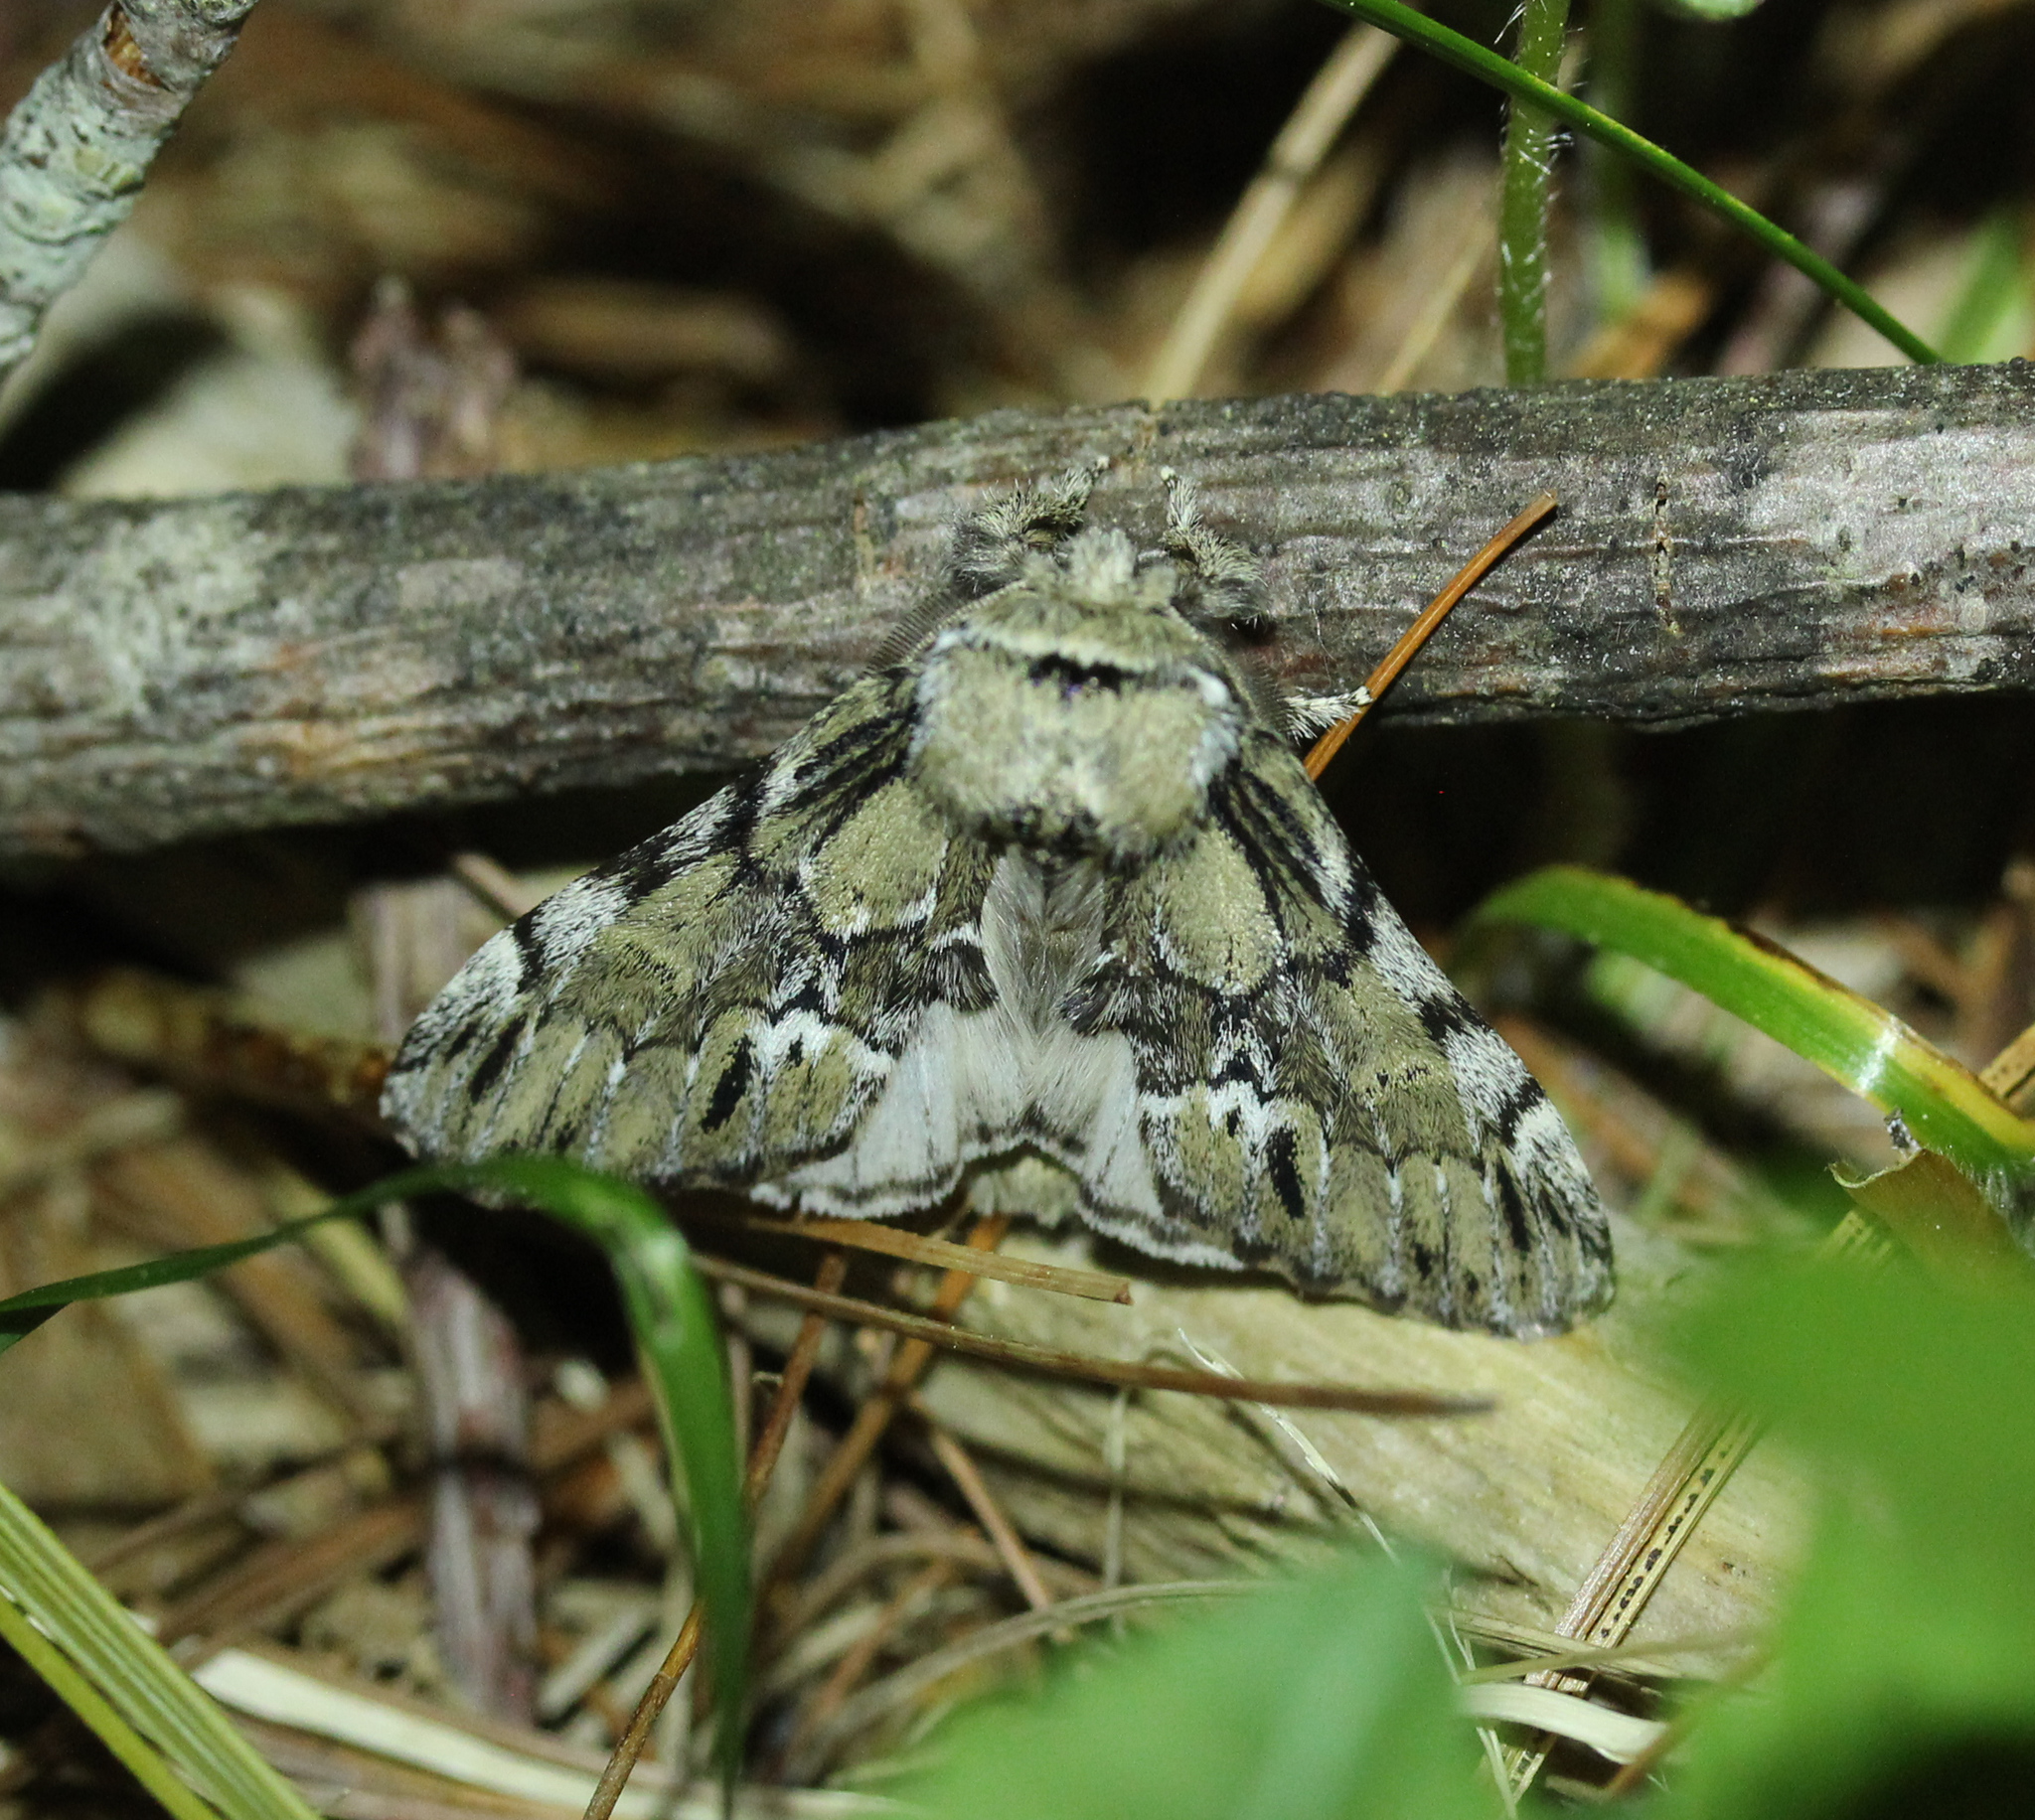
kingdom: Animalia
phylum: Arthropoda
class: Insecta
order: Lepidoptera
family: Notodontidae
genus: Paraeschra
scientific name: Paraeschra georgica
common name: Georgian prominent
